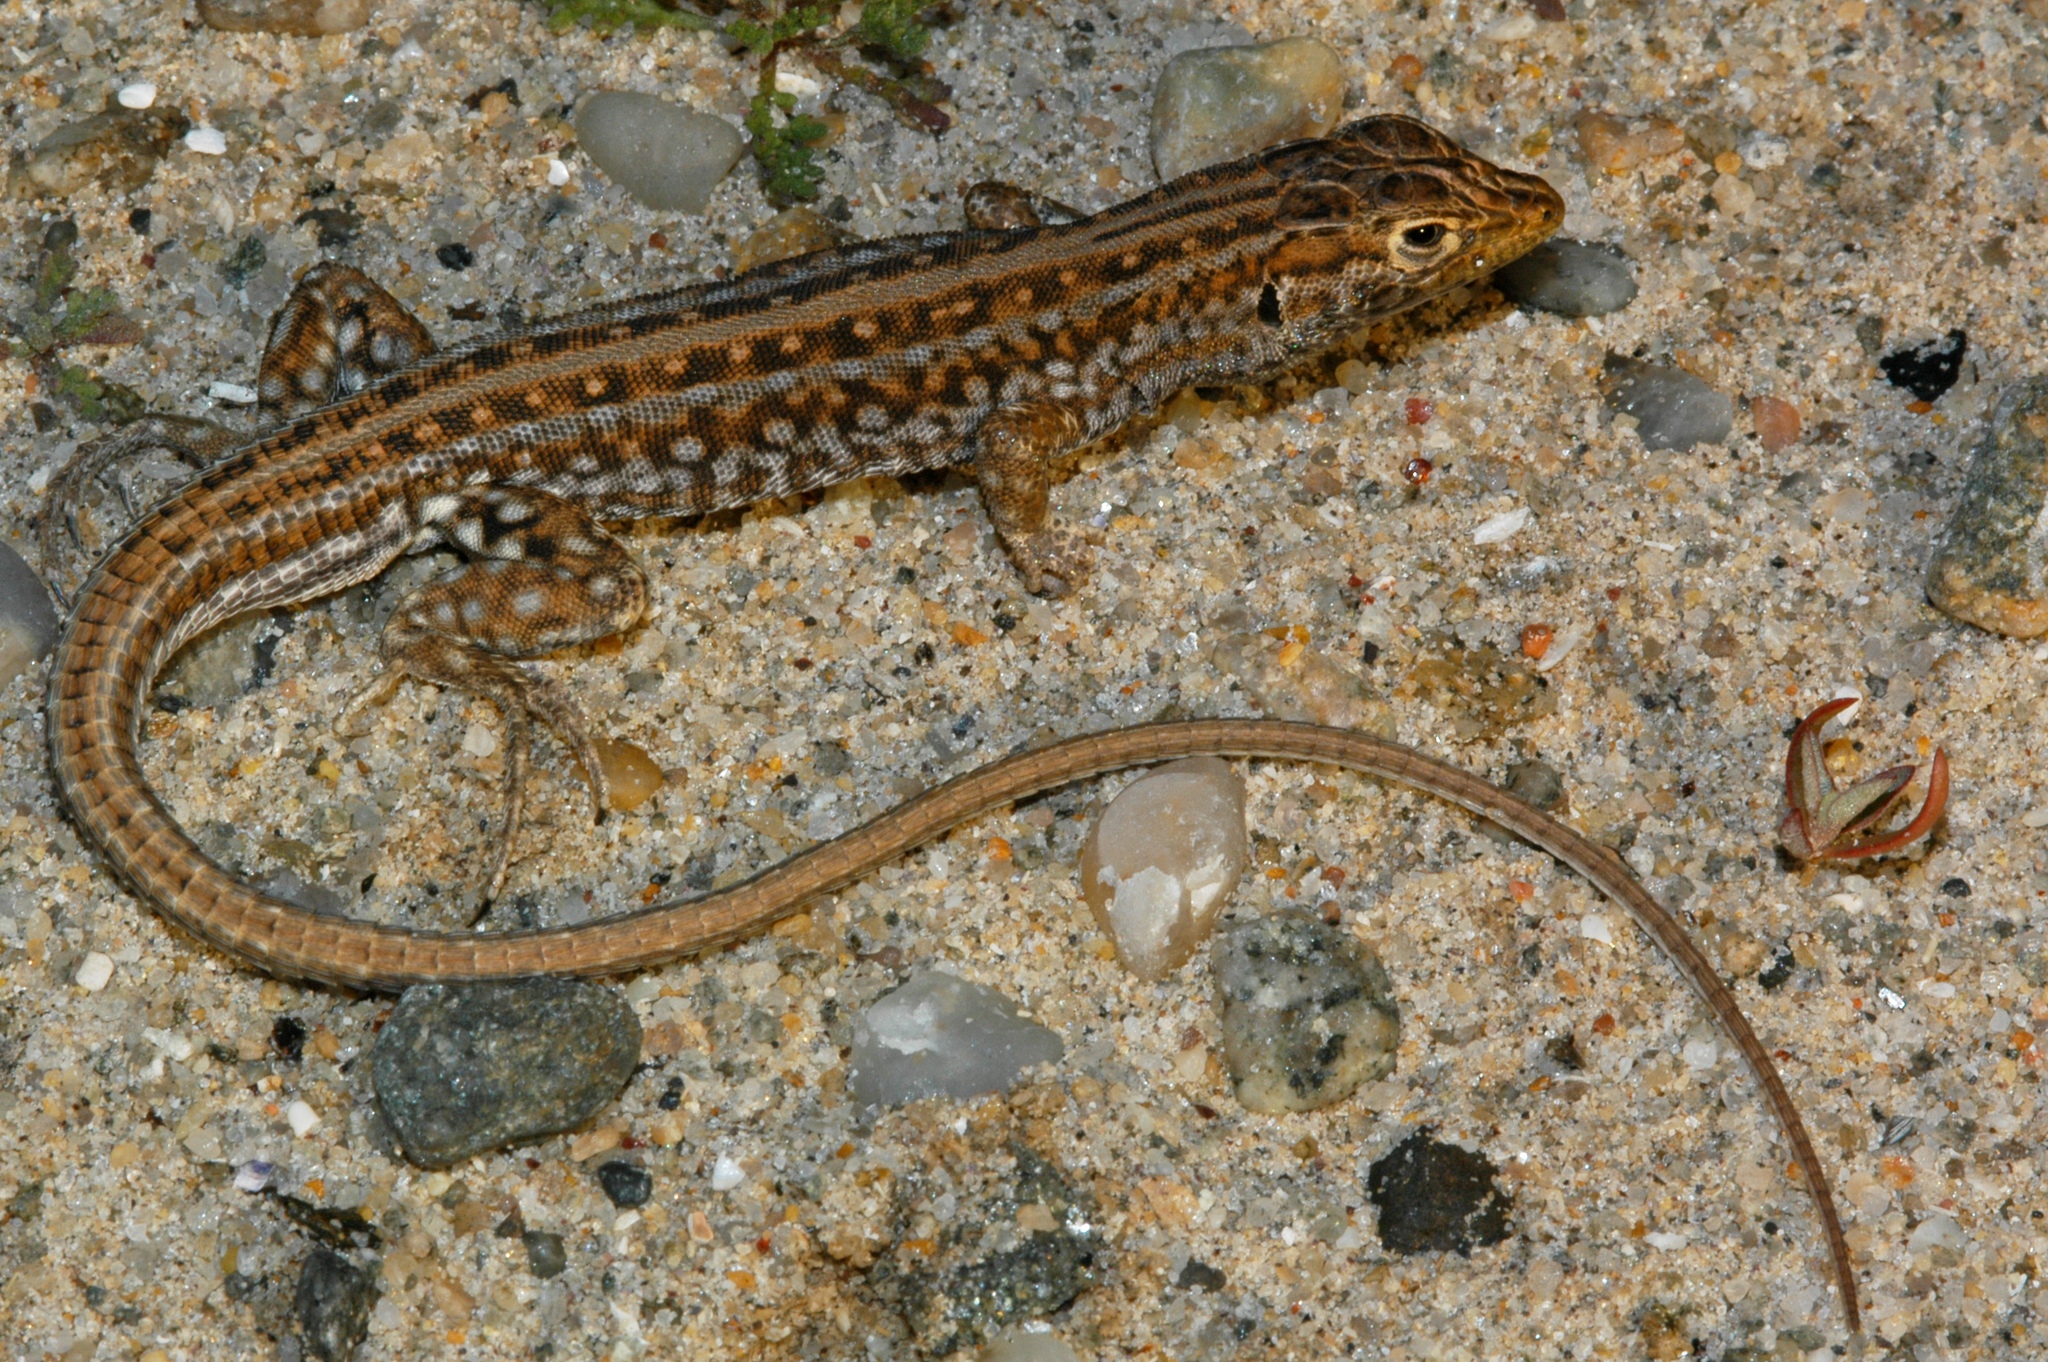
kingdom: Animalia
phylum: Chordata
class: Squamata
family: Lacertidae
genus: Meroles
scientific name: Meroles knoxii
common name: Knox's desert lizard
